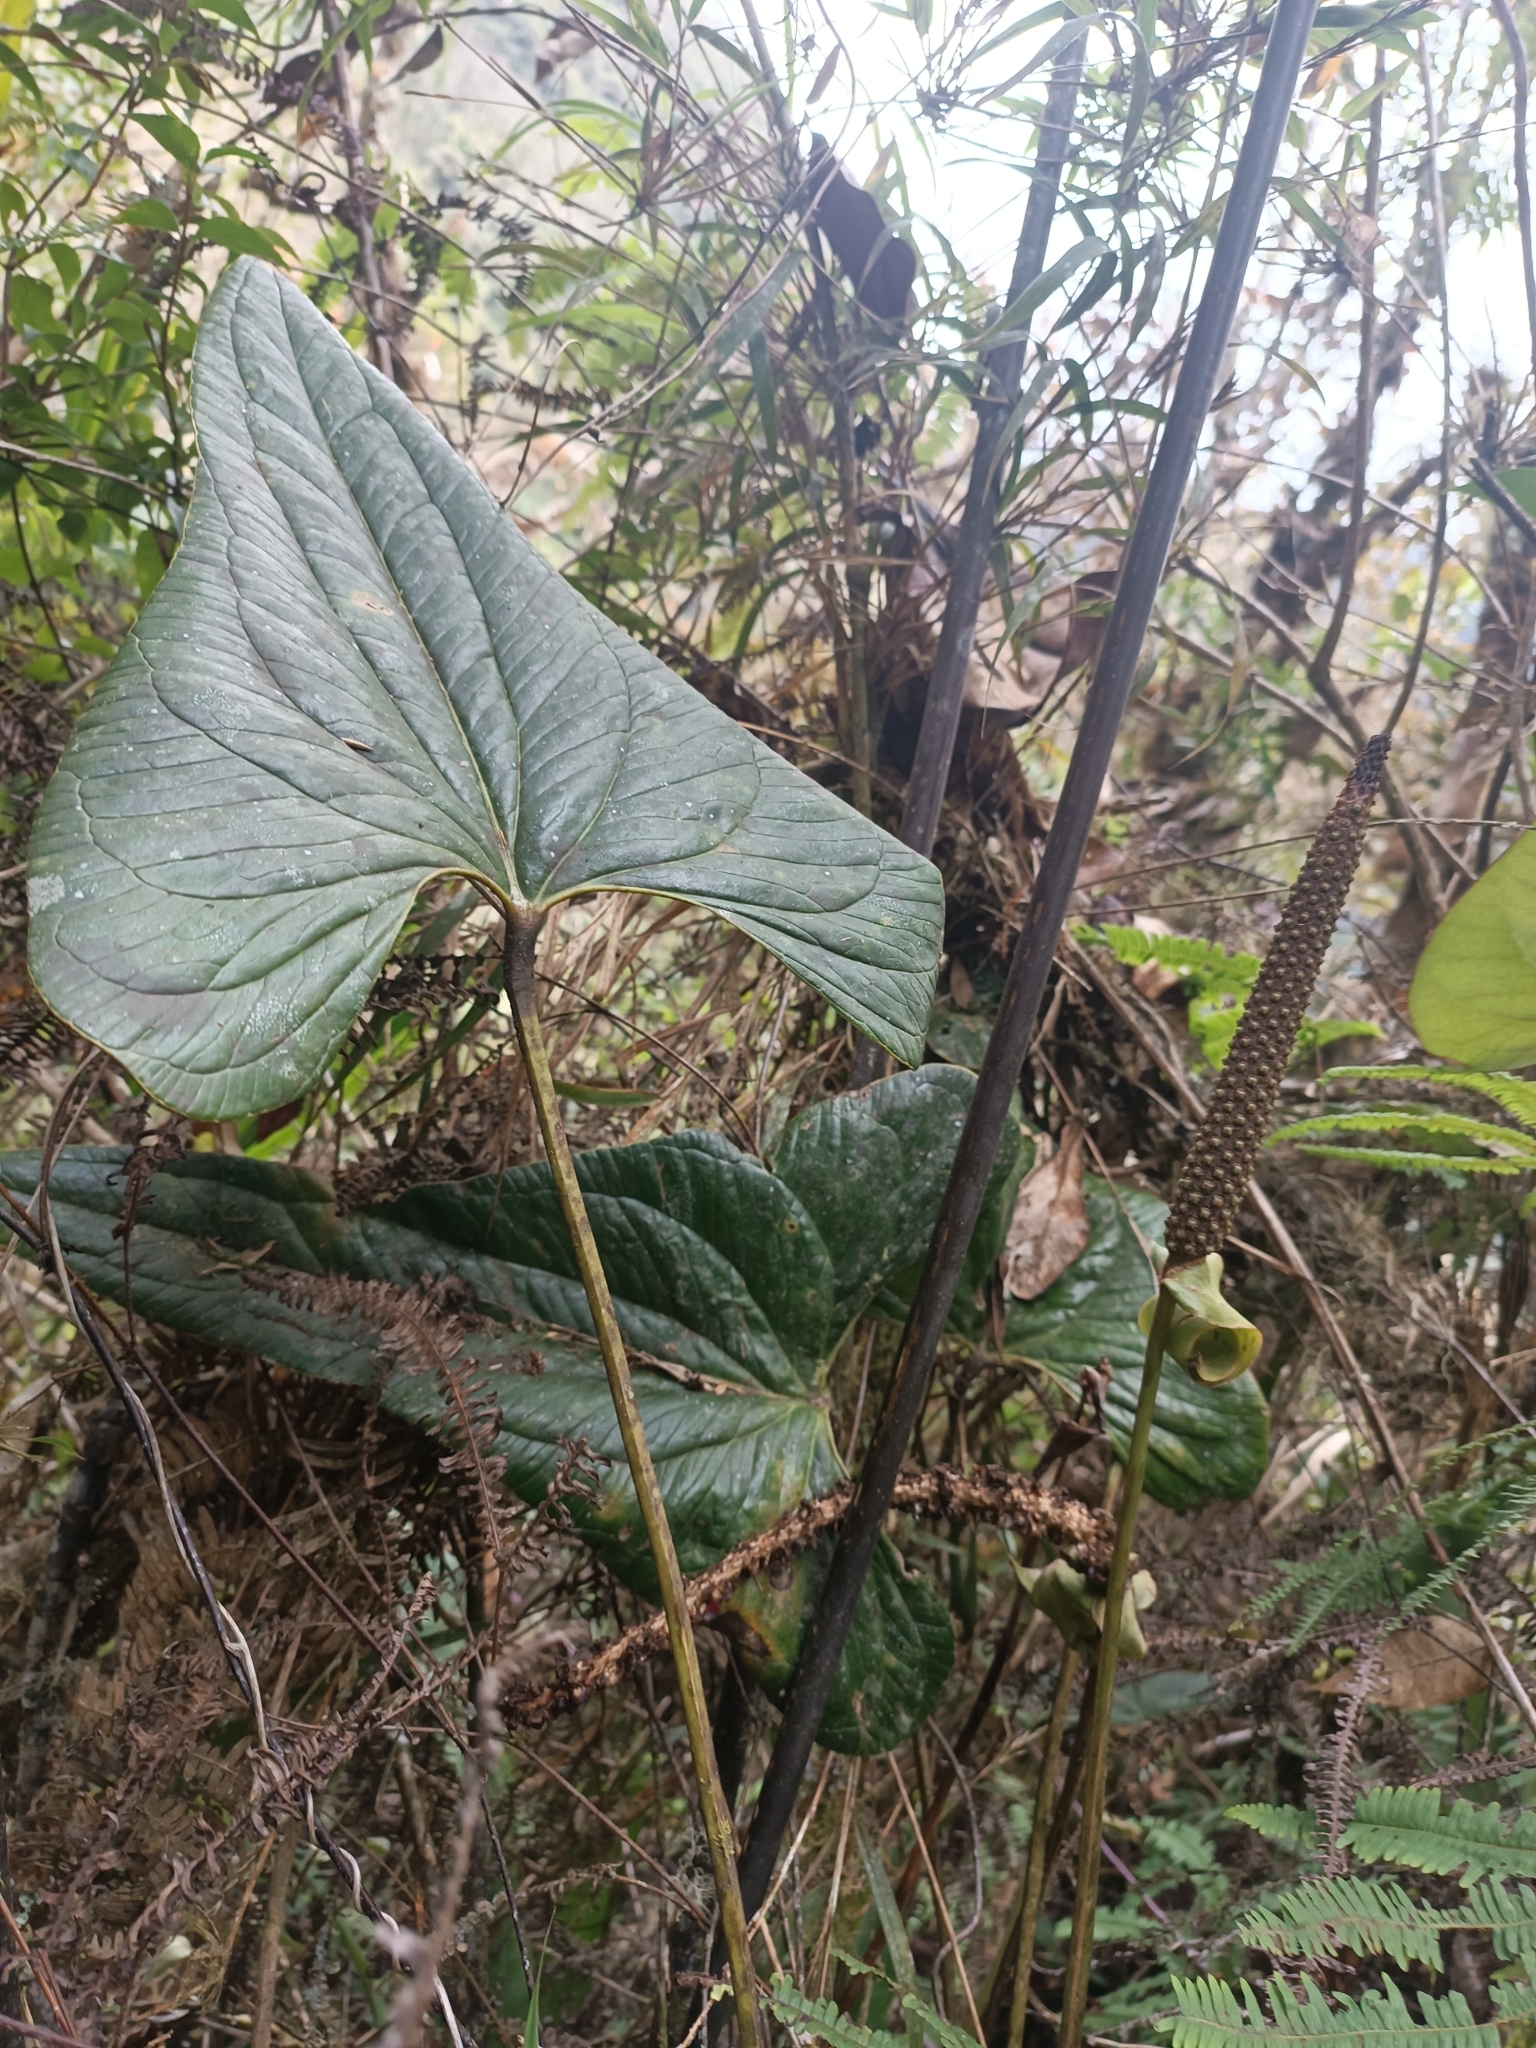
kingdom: Plantae
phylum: Tracheophyta
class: Liliopsida
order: Alismatales
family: Araceae
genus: Anthurium
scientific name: Anthurium lechlerianum
